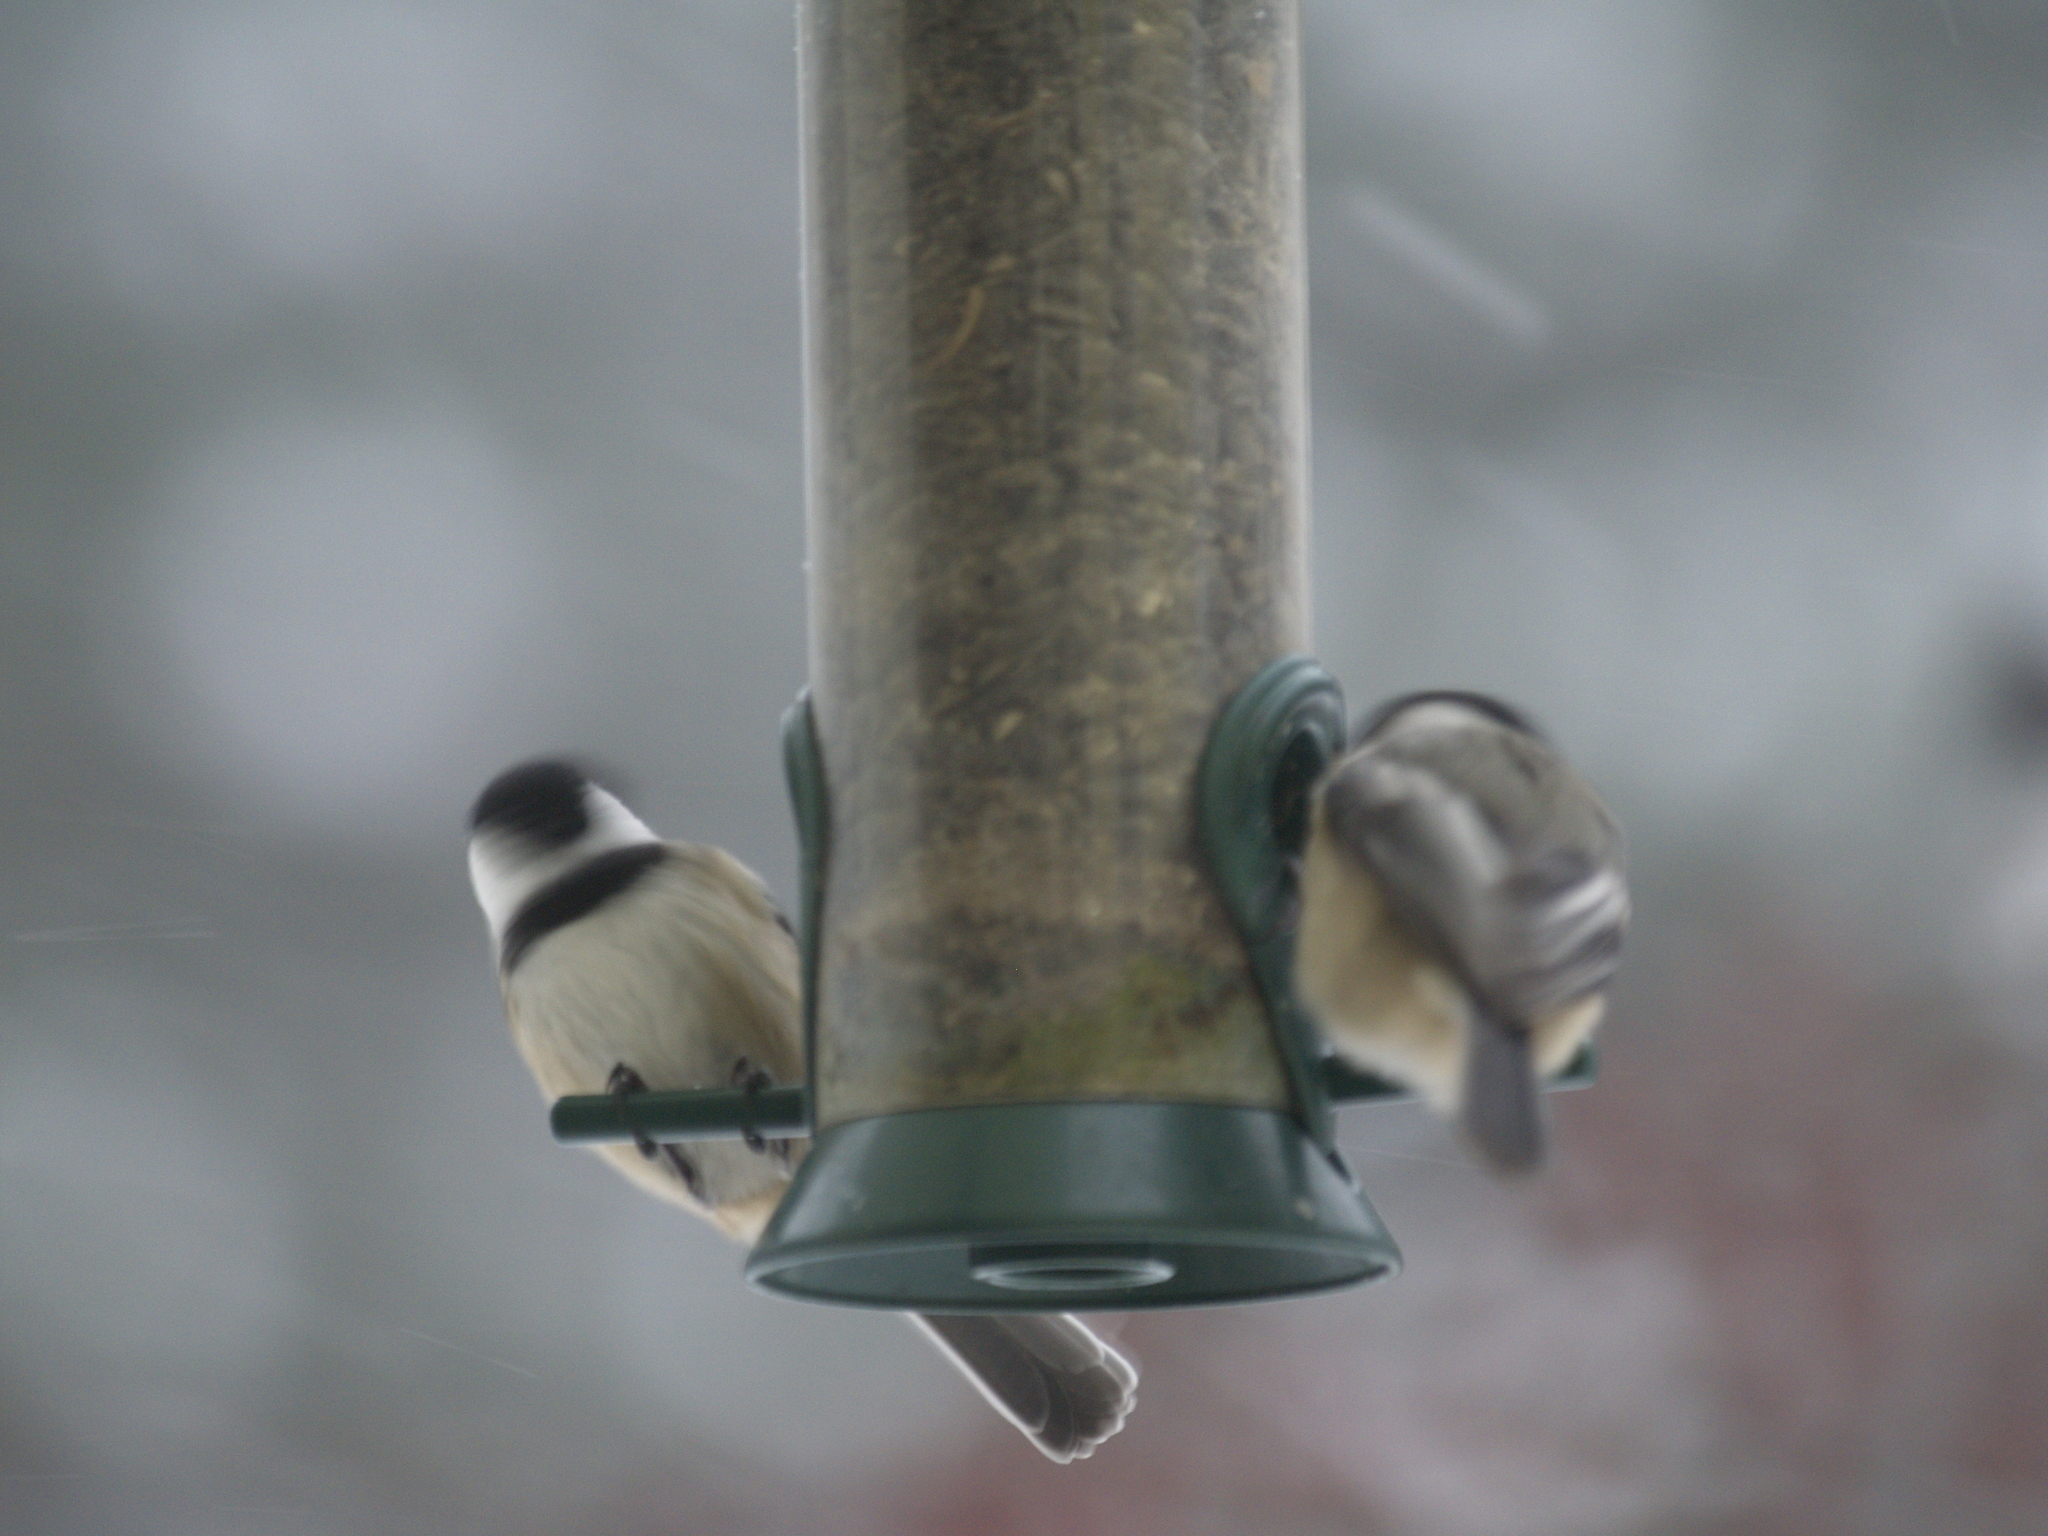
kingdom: Animalia
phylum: Chordata
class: Aves
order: Passeriformes
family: Paridae
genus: Poecile
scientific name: Poecile atricapillus
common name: Black-capped chickadee
